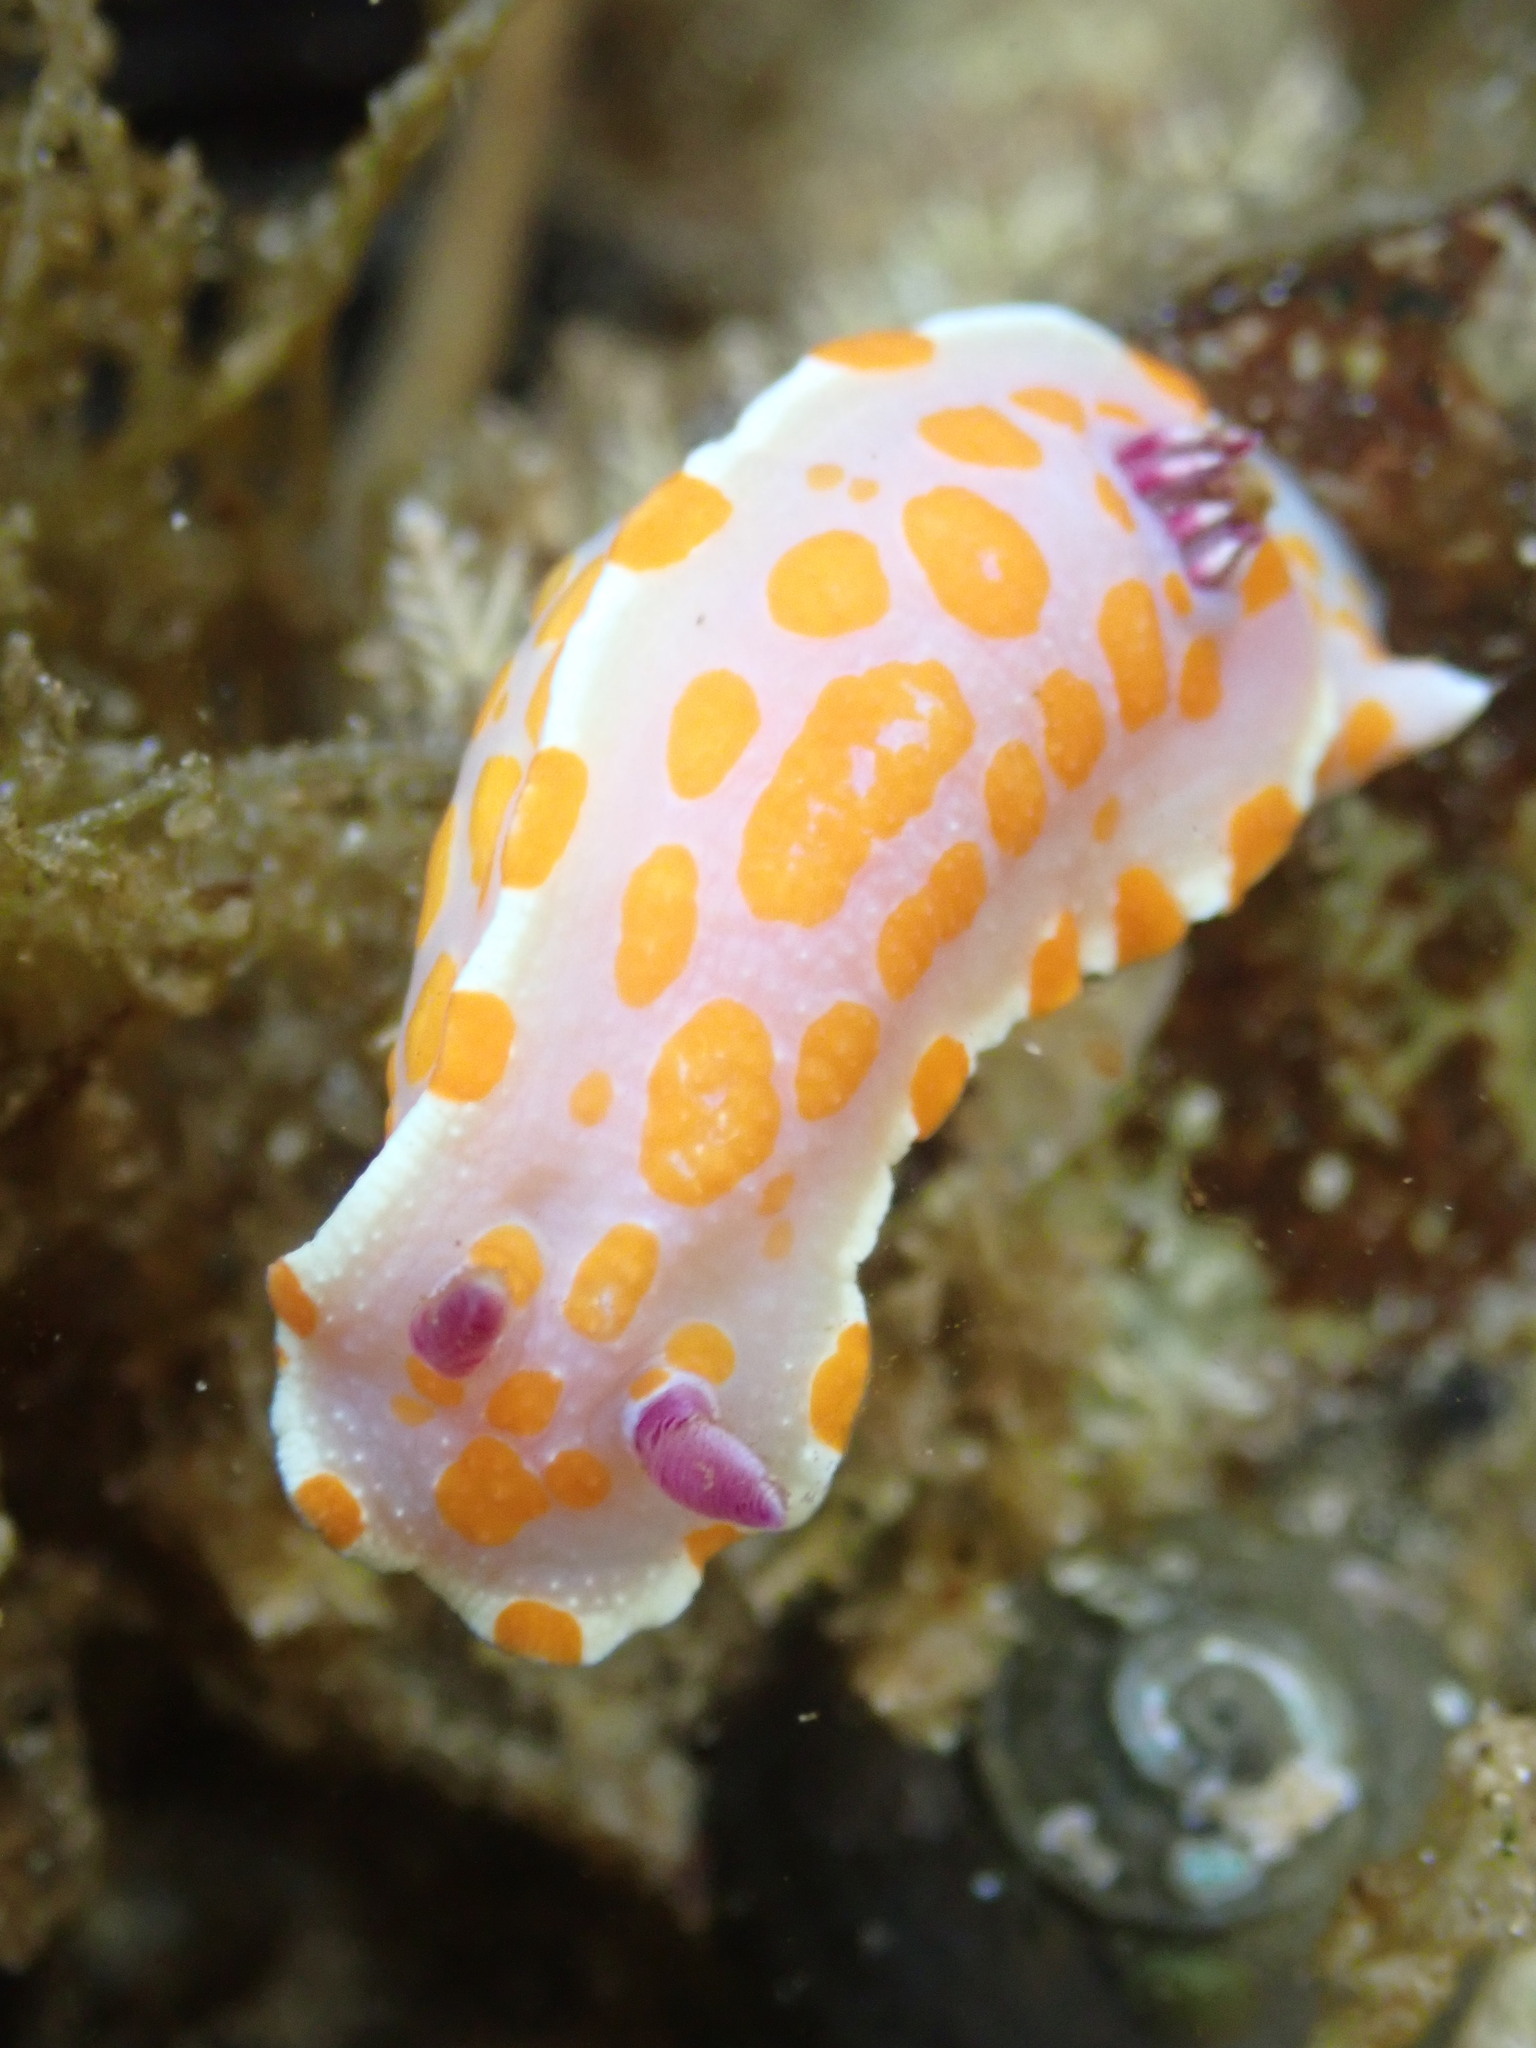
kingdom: Animalia
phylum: Mollusca
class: Gastropoda
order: Nudibranchia
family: Chromodorididae
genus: Ceratosoma
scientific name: Ceratosoma amoenum
